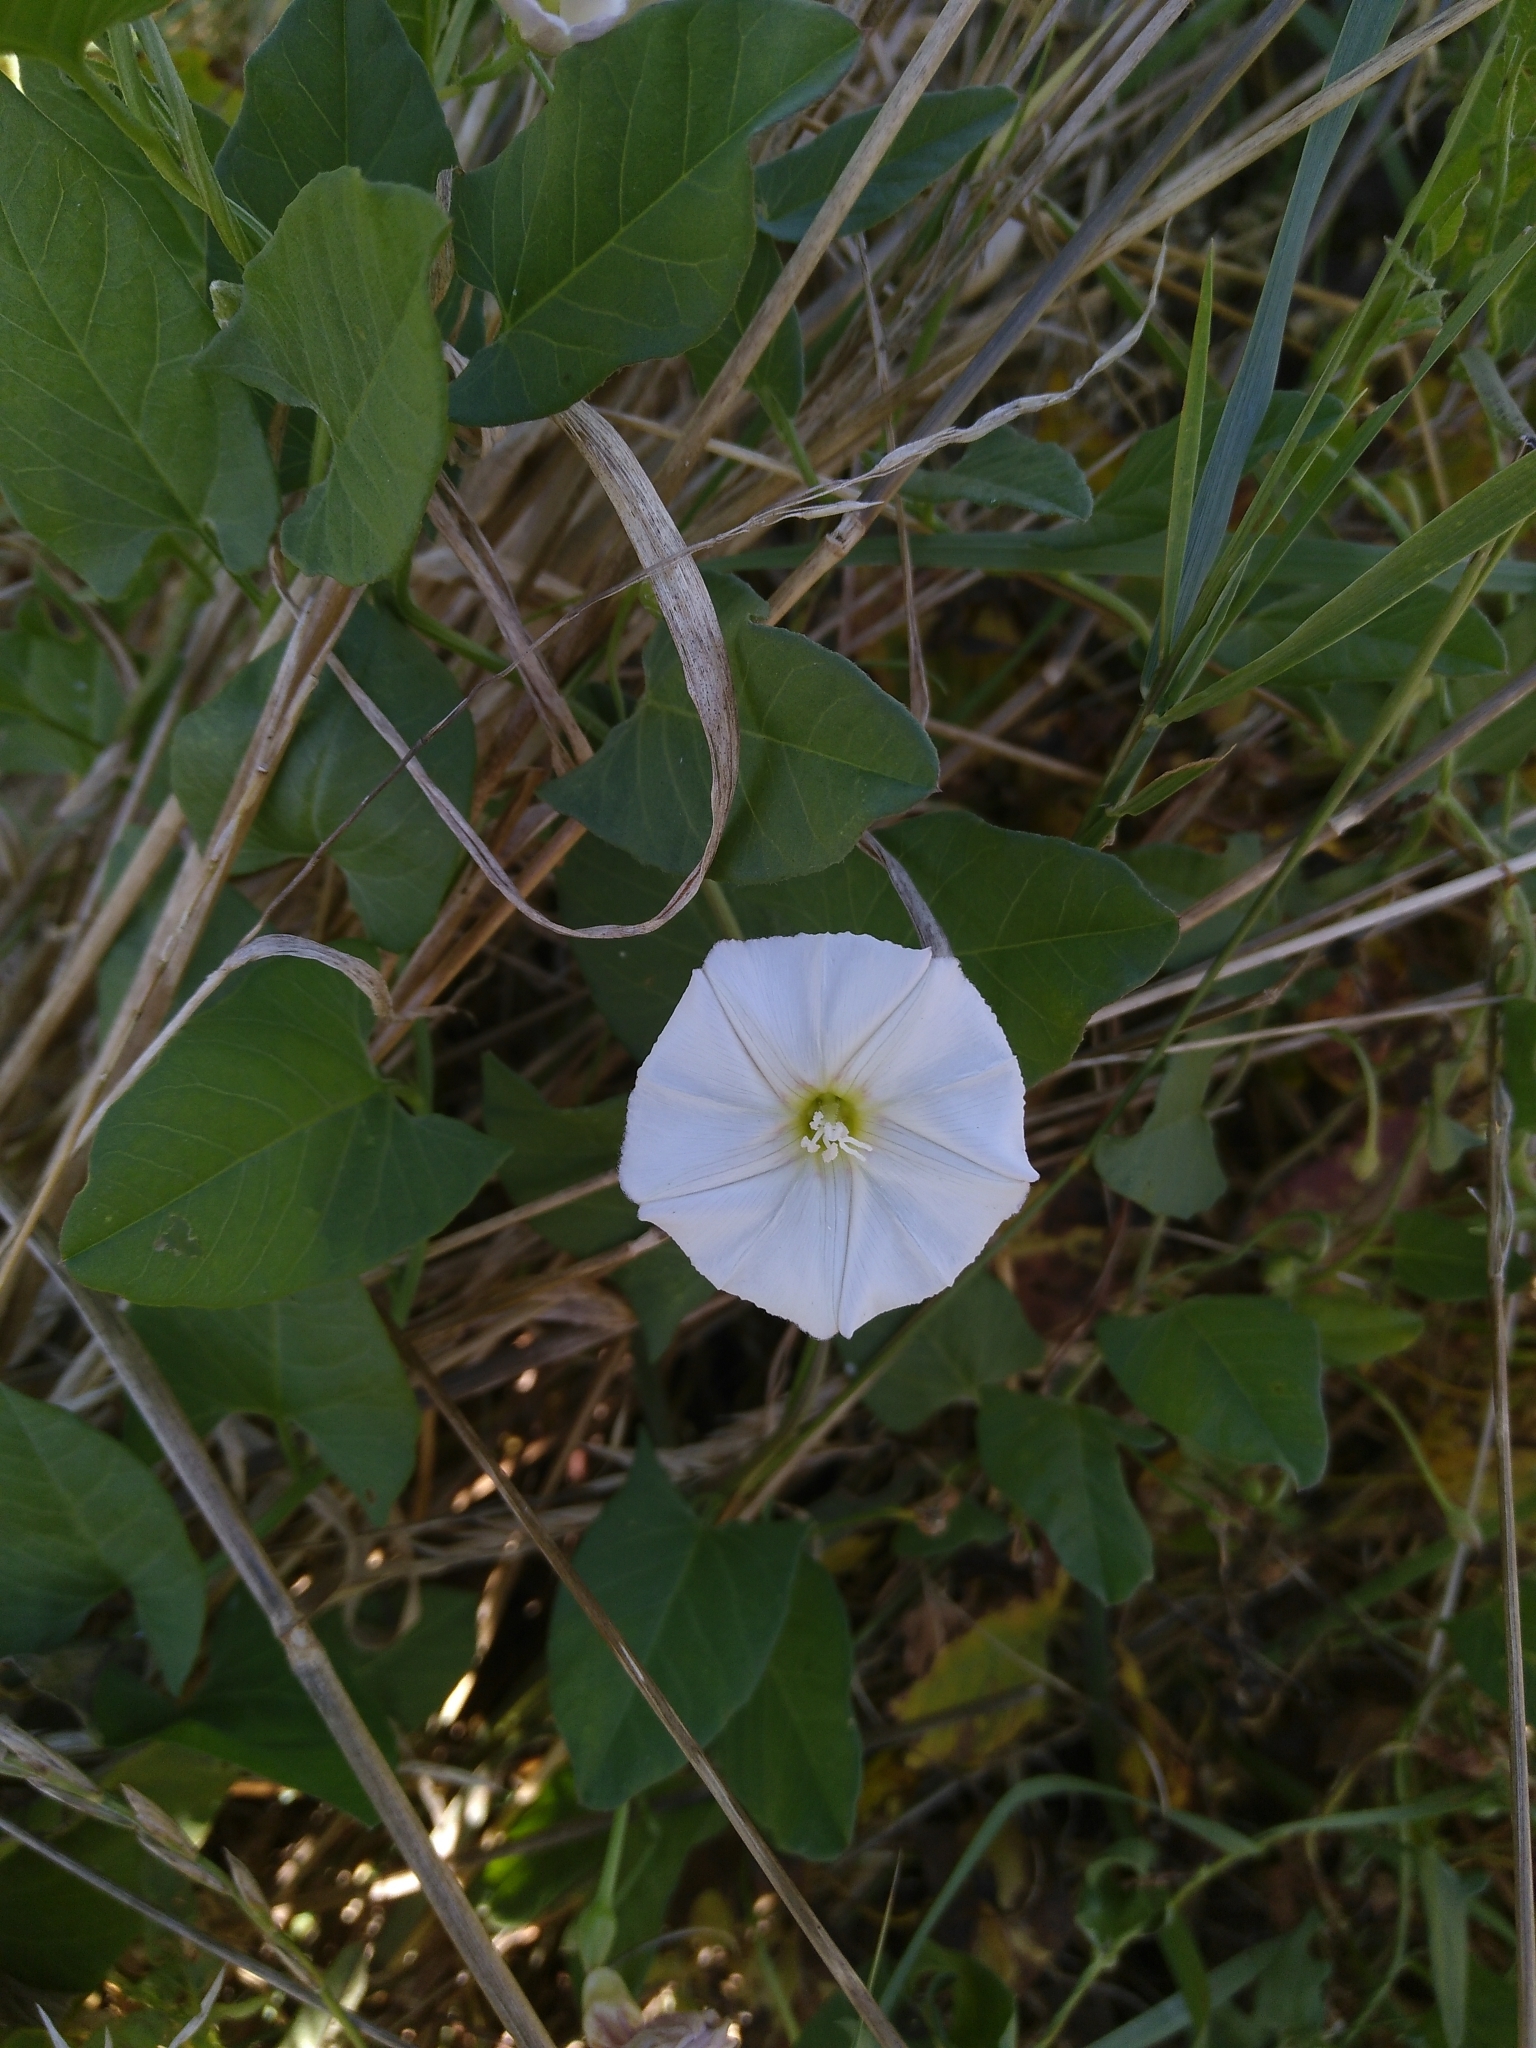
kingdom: Plantae
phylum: Tracheophyta
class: Magnoliopsida
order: Solanales
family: Convolvulaceae
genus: Convolvulus
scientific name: Convolvulus arvensis
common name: Field bindweed
